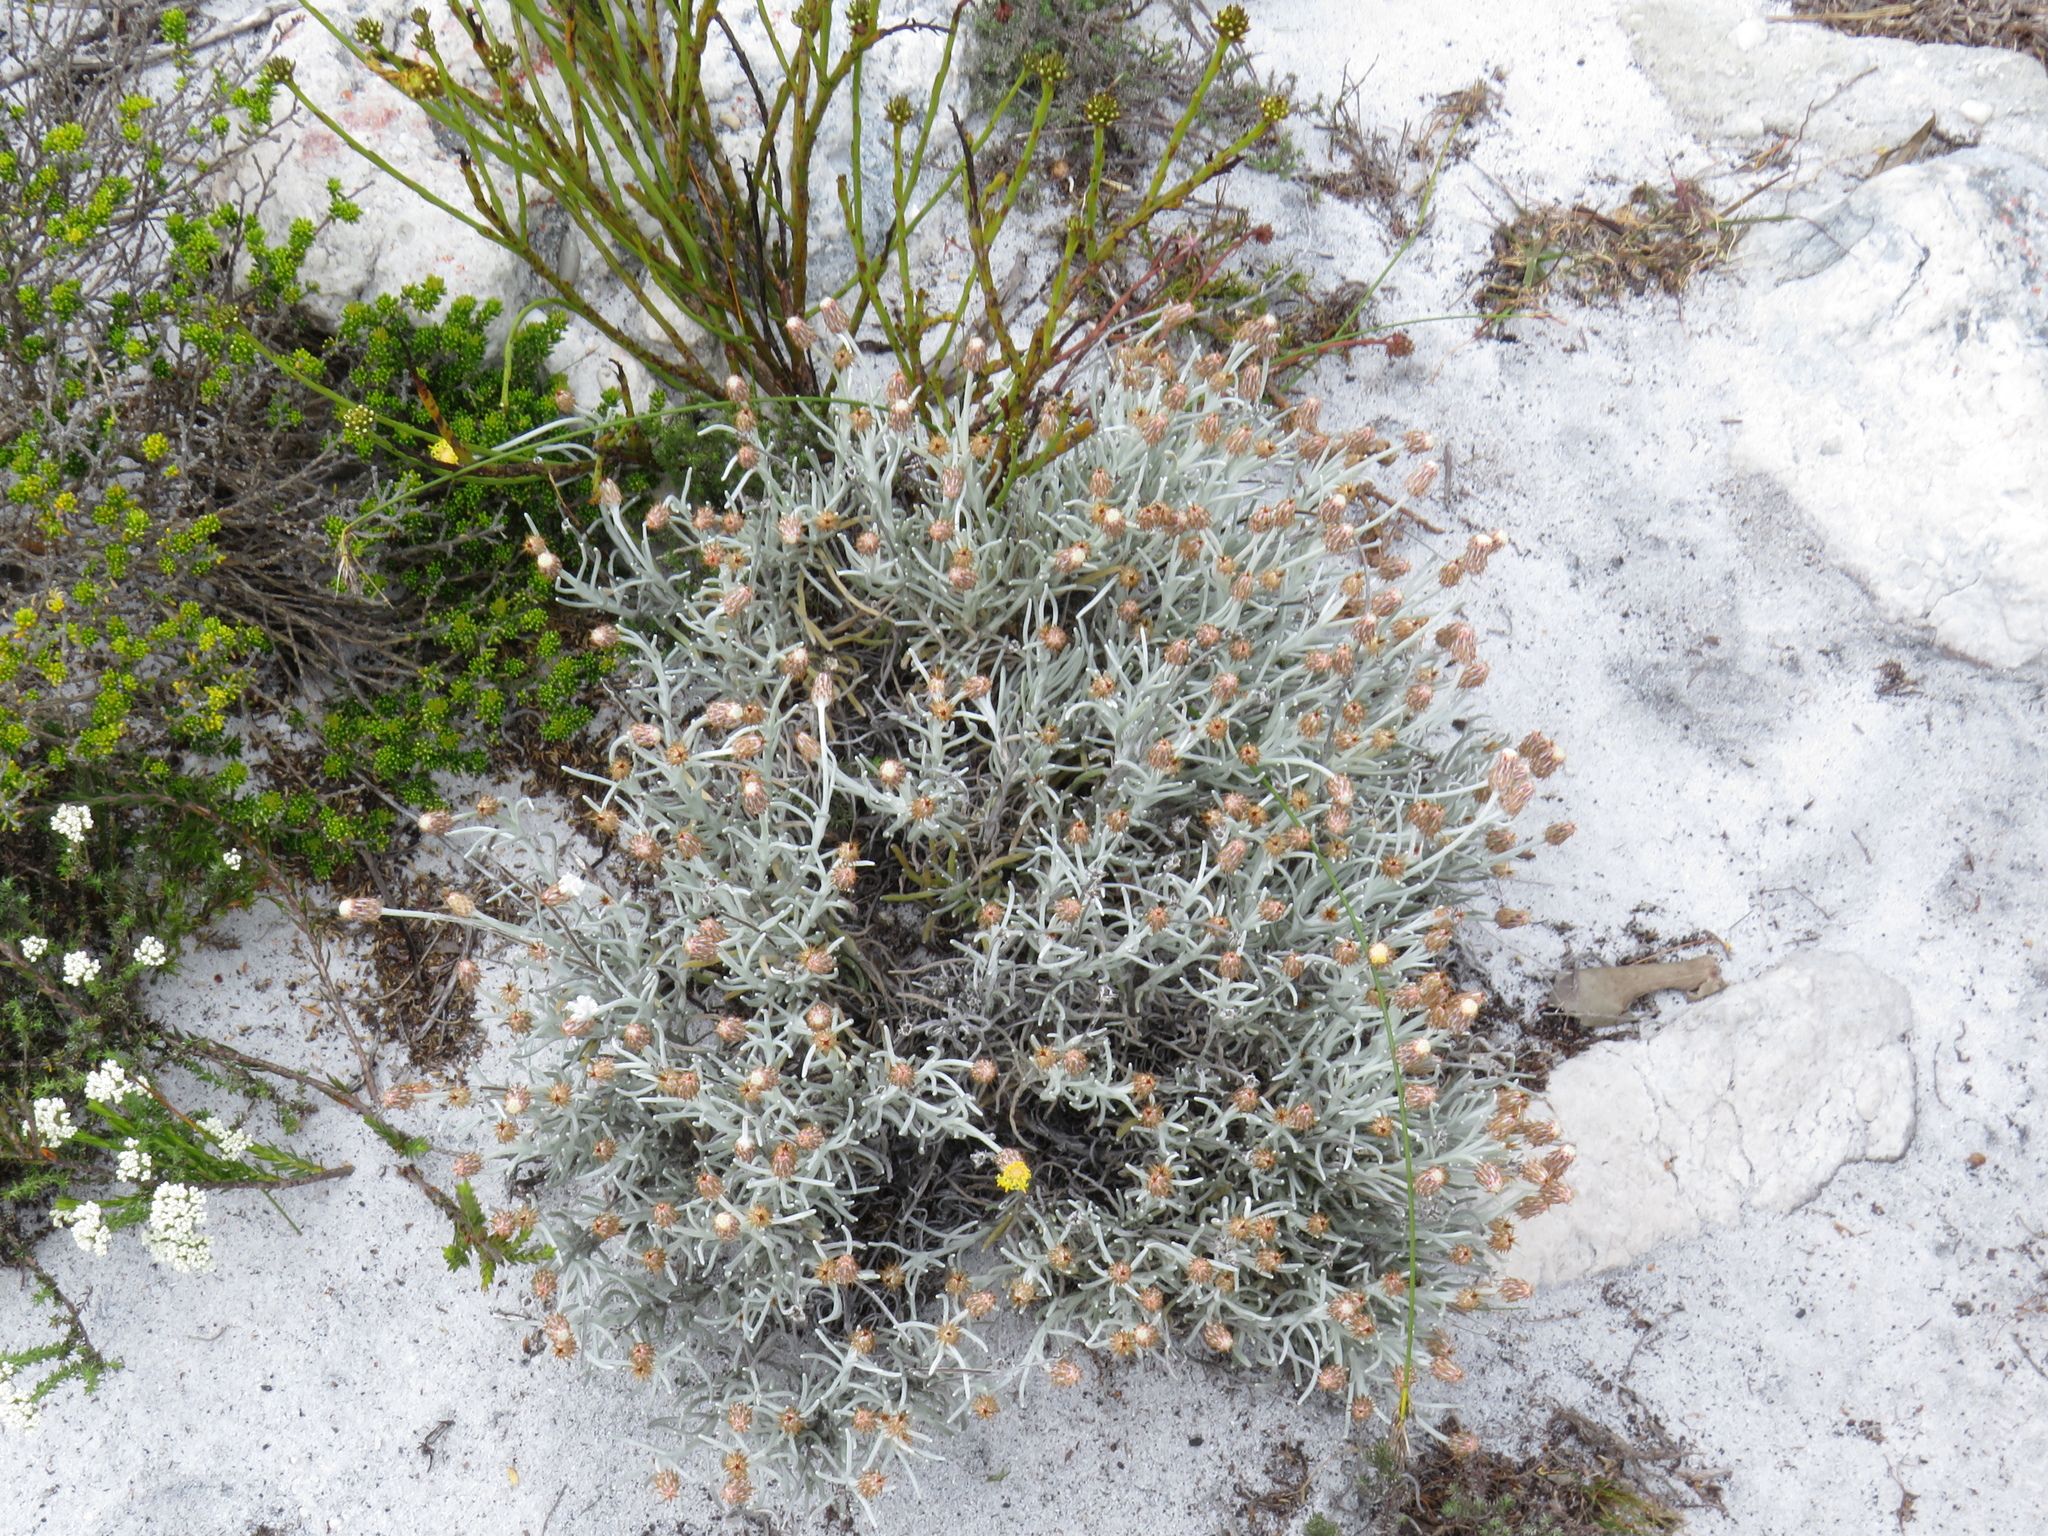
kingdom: Plantae
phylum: Tracheophyta
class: Magnoliopsida
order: Asterales
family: Asteraceae
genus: Syncarpha
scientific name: Syncarpha gnaphaloides
